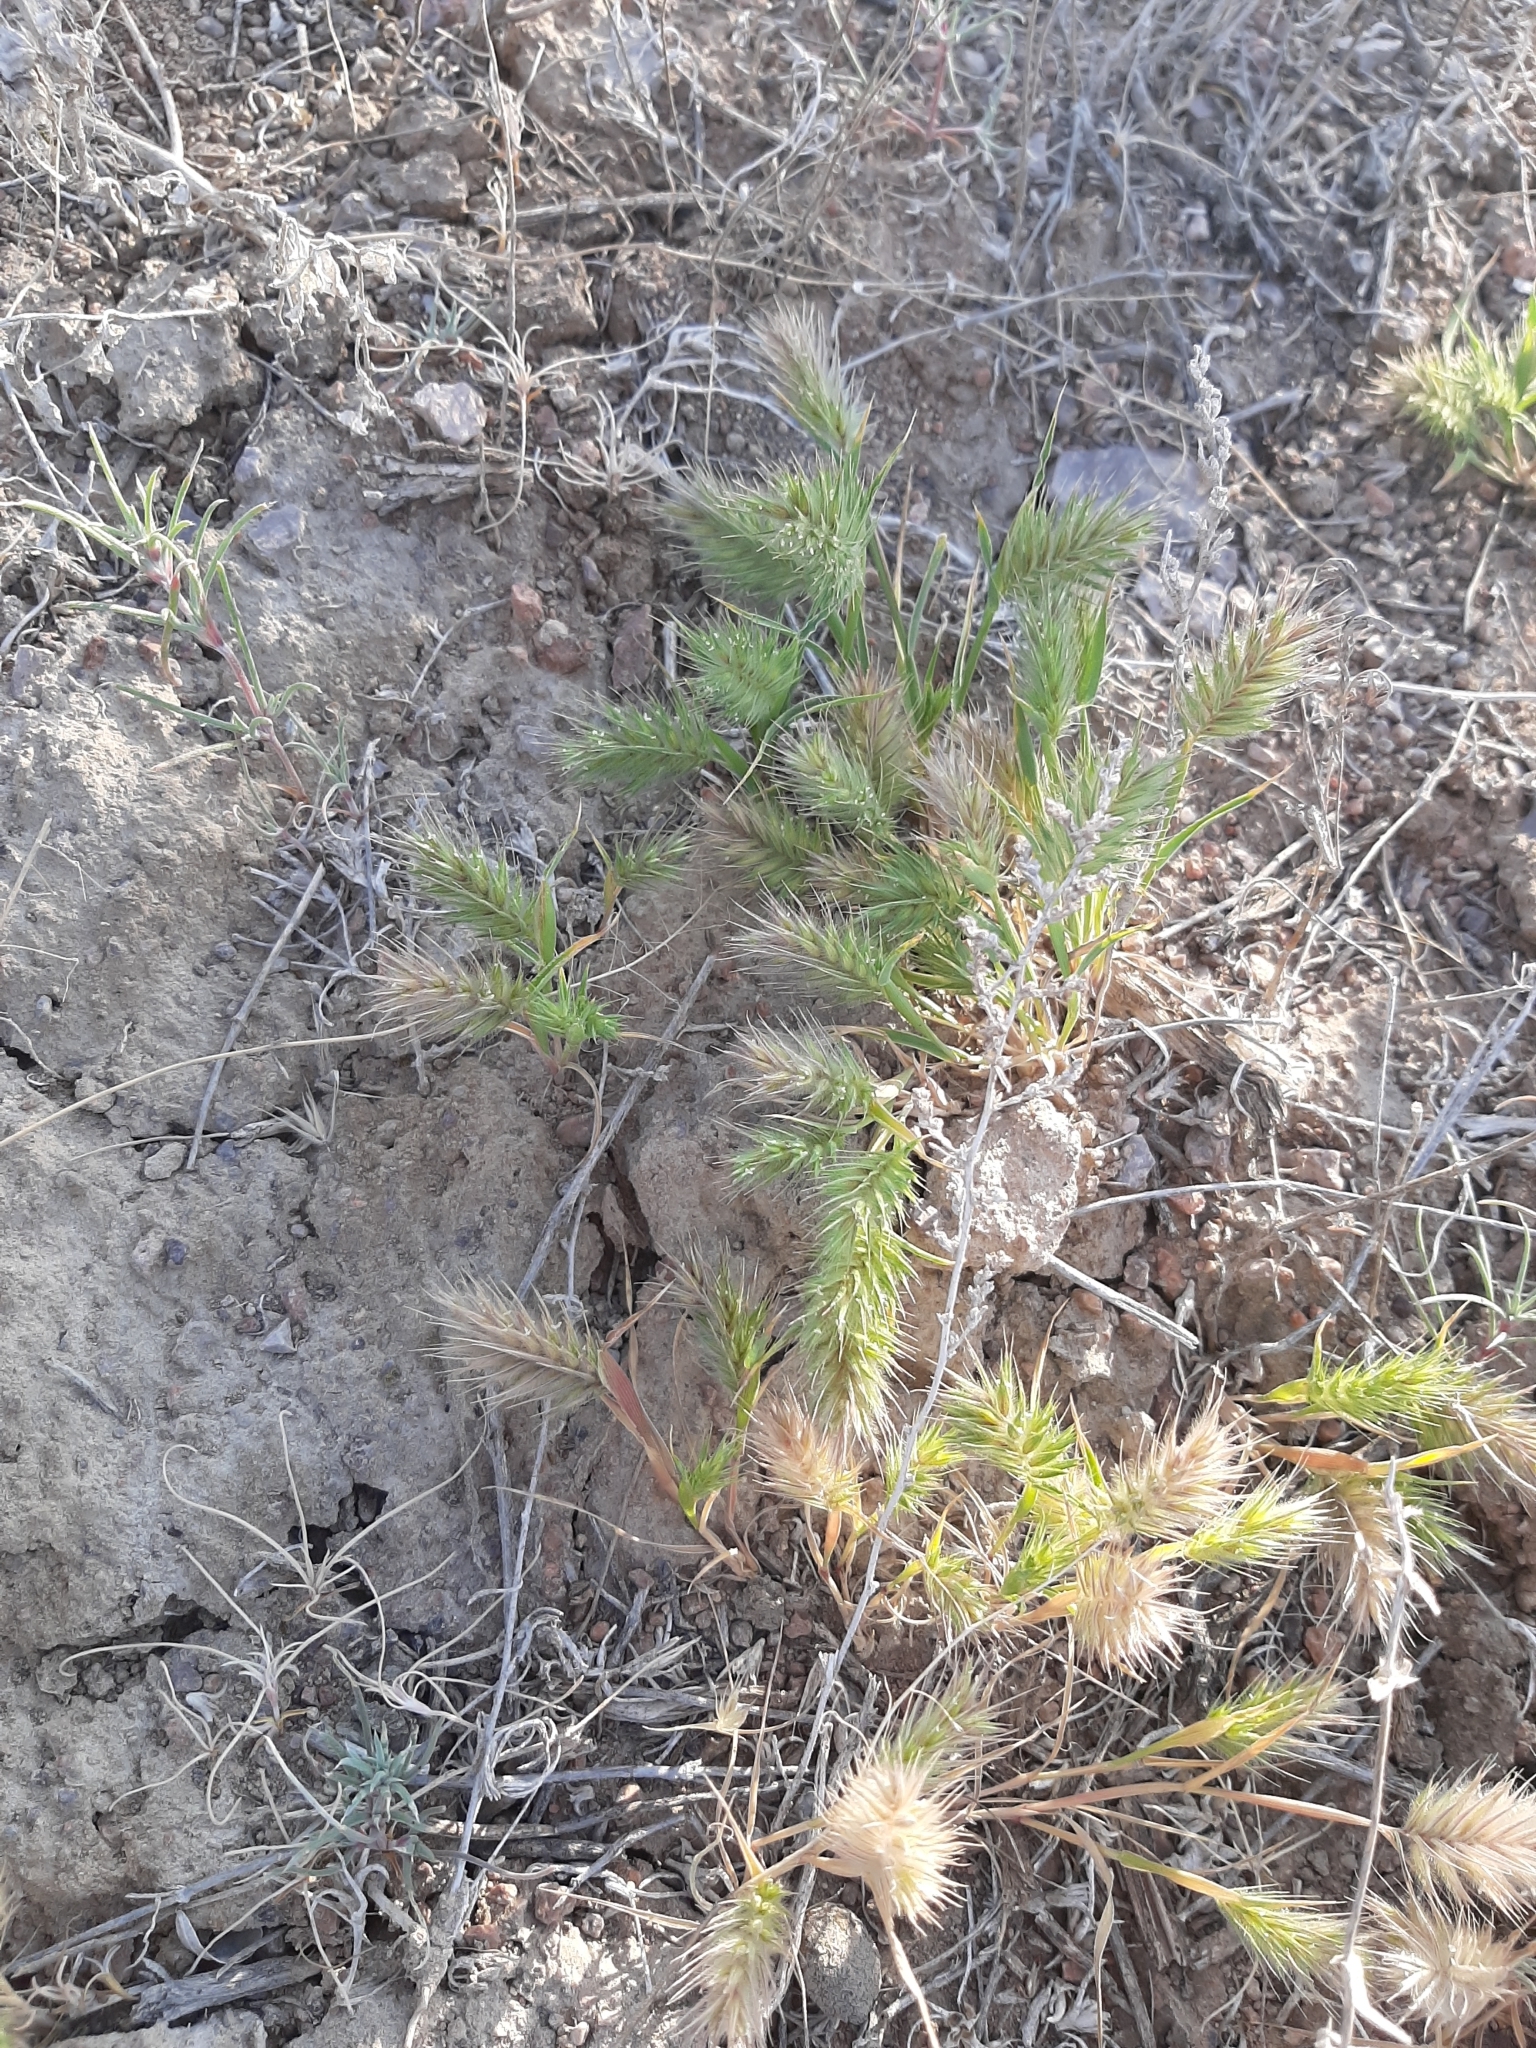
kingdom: Plantae
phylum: Tracheophyta
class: Liliopsida
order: Poales
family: Poaceae
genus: Eremopyrum
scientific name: Eremopyrum distans
